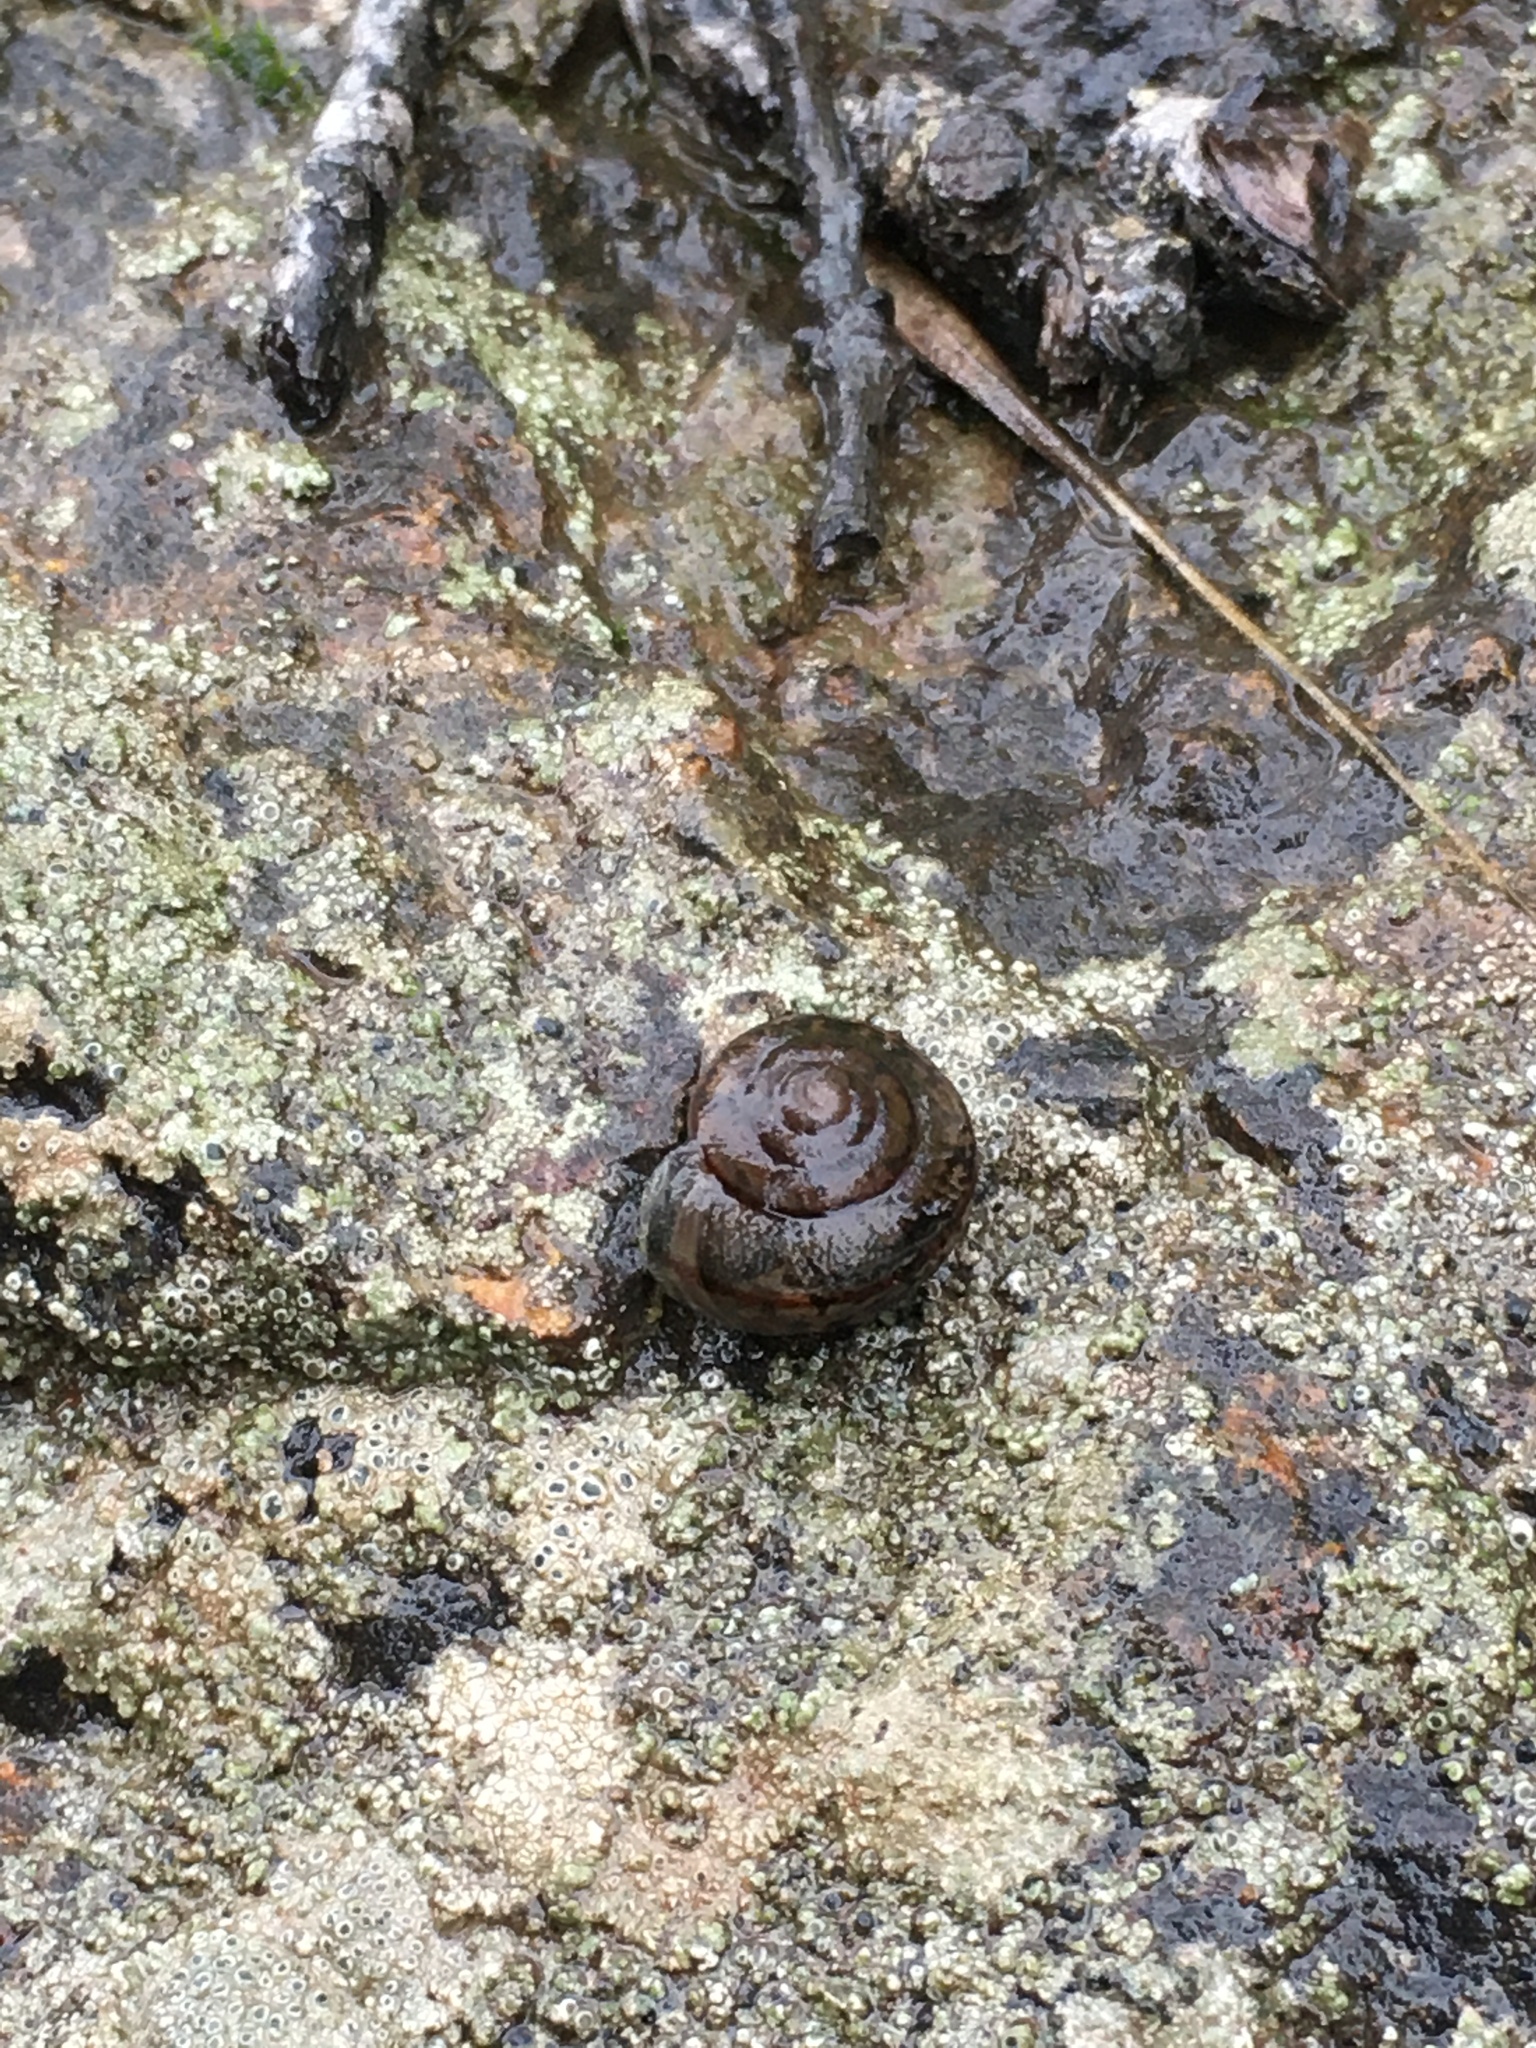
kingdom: Animalia
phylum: Mollusca
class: Gastropoda
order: Stylommatophora
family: Xanthonychidae
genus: Helminthoglypta
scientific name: Helminthoglypta sanctaecrucis
